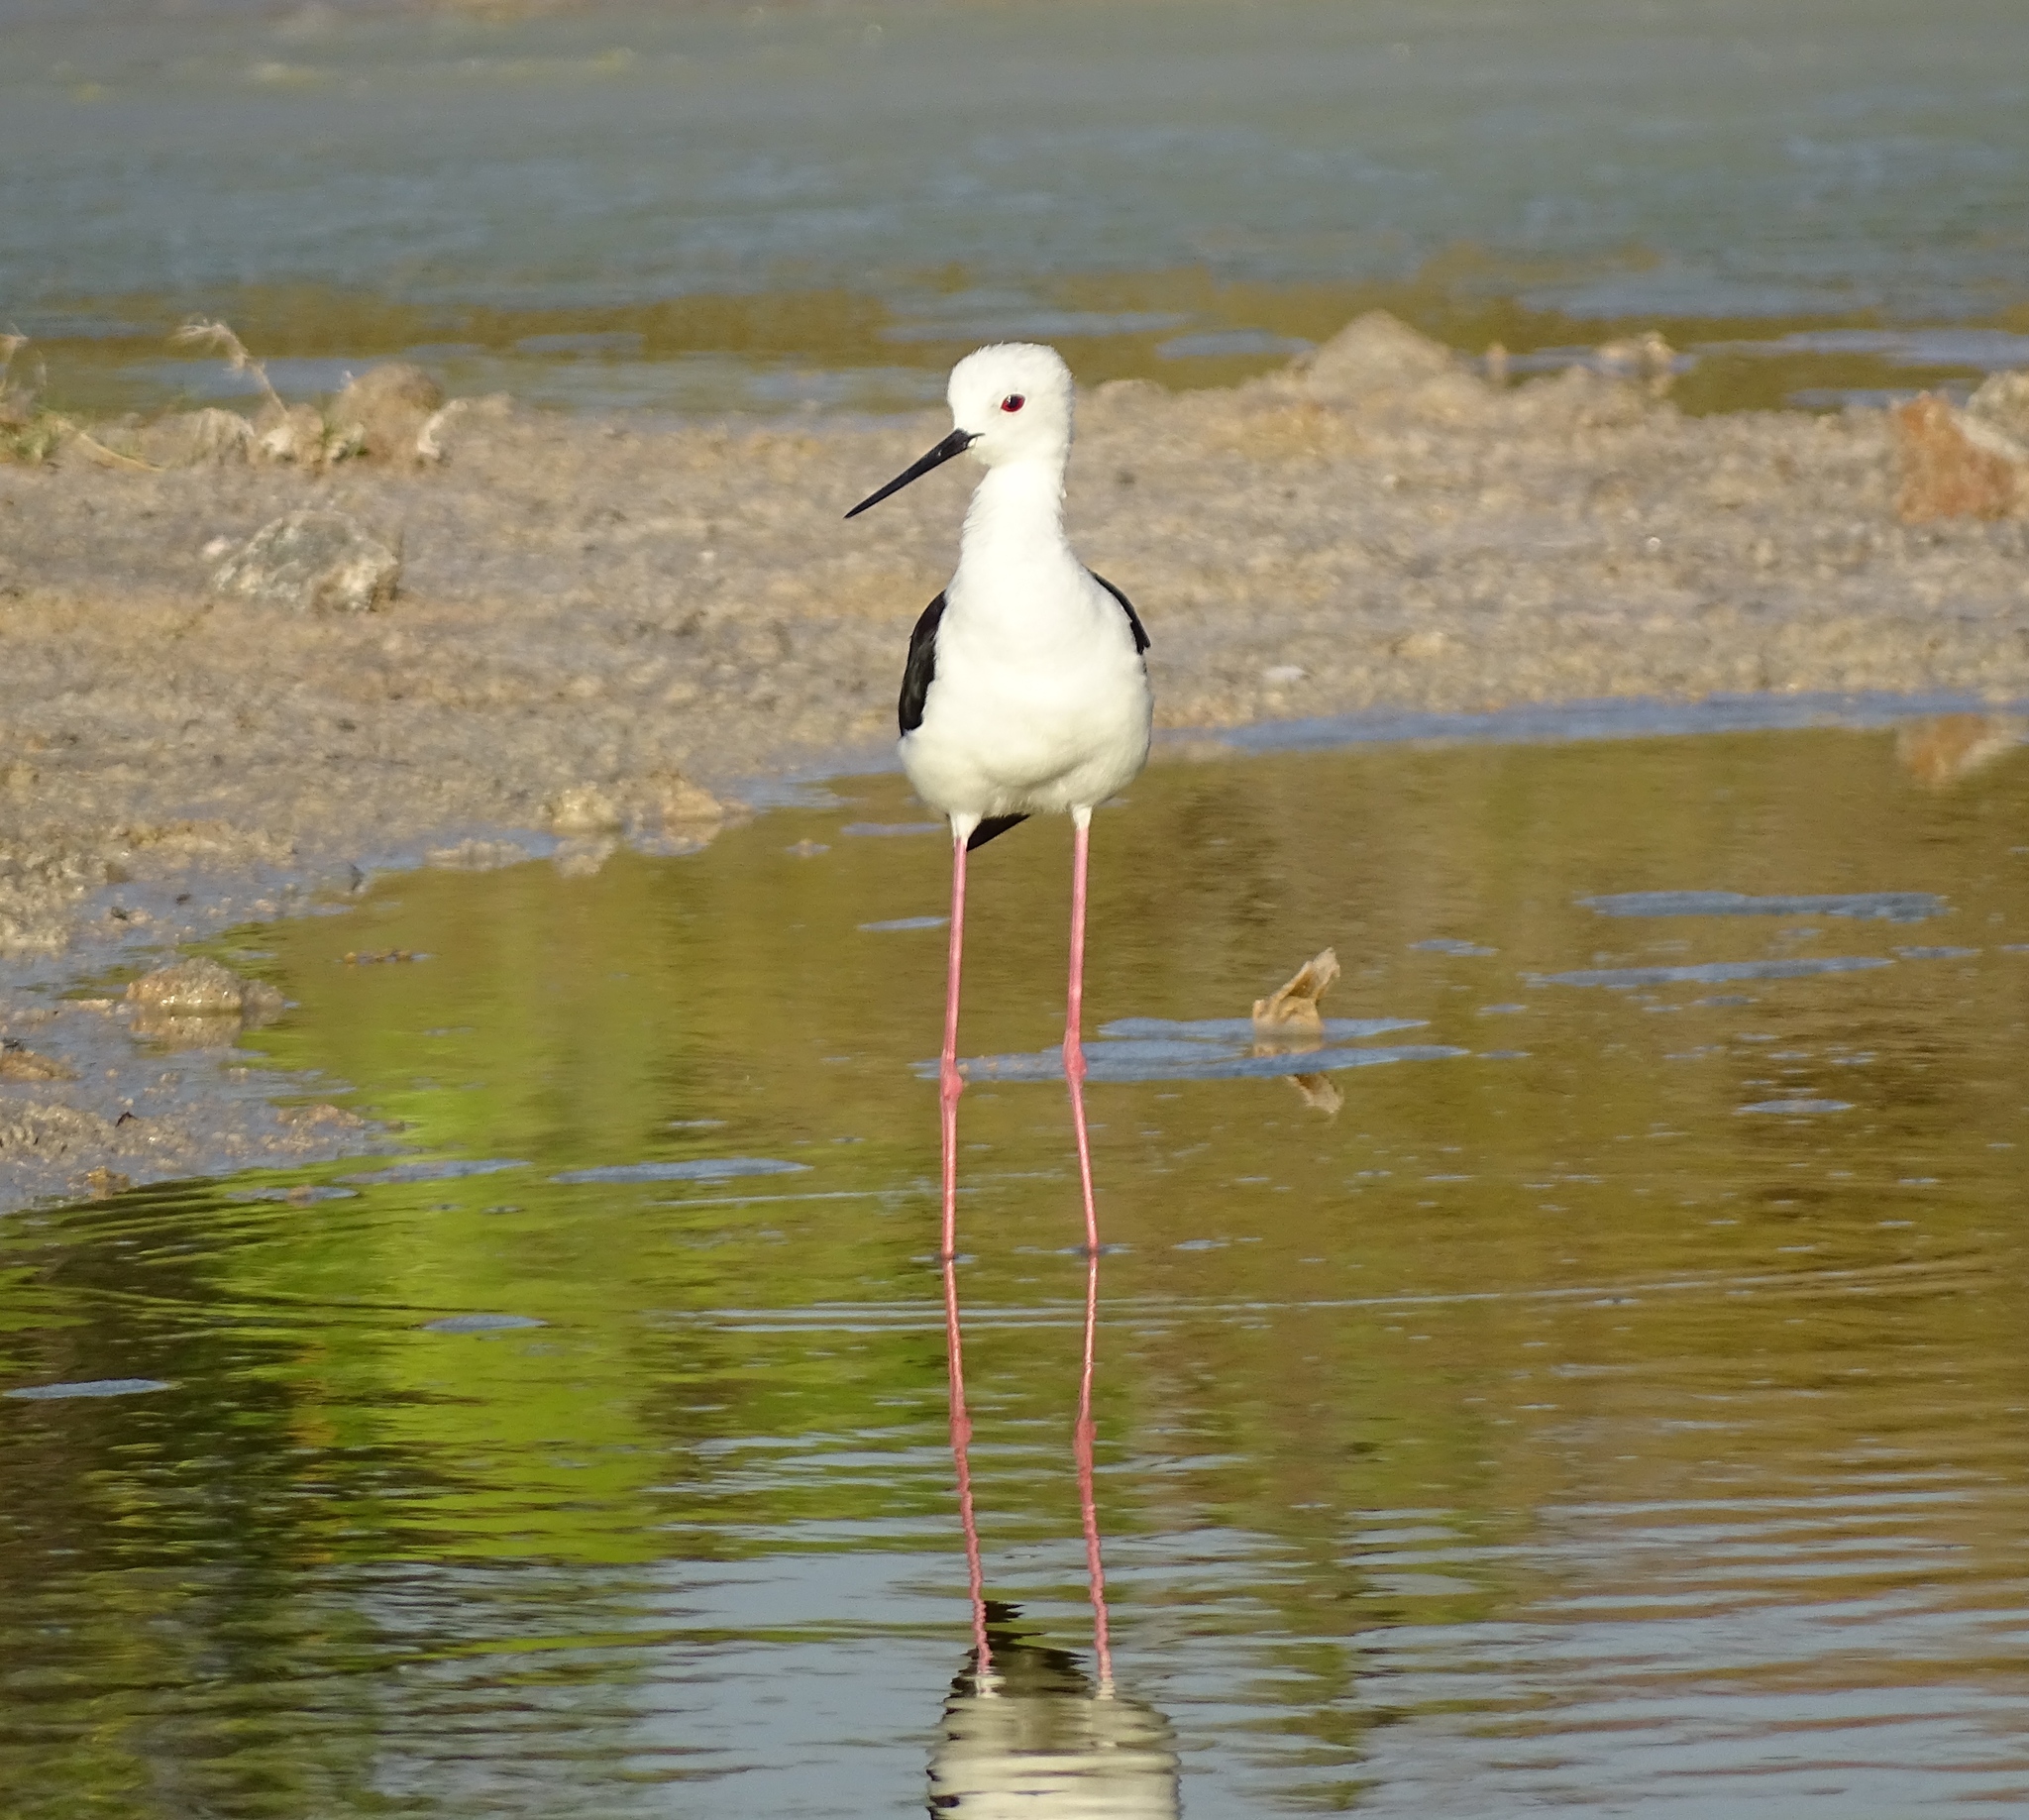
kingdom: Animalia
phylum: Chordata
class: Aves
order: Charadriiformes
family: Recurvirostridae
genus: Himantopus
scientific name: Himantopus himantopus
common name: Black-winged stilt
